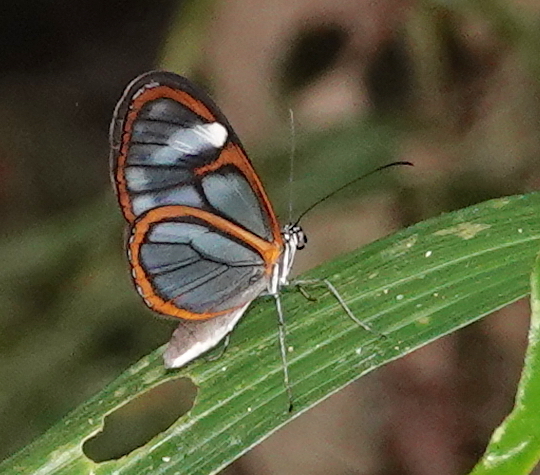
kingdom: Animalia
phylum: Arthropoda
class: Insecta
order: Lepidoptera
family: Nymphalidae
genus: Pseudoscada
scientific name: Pseudoscada timna
